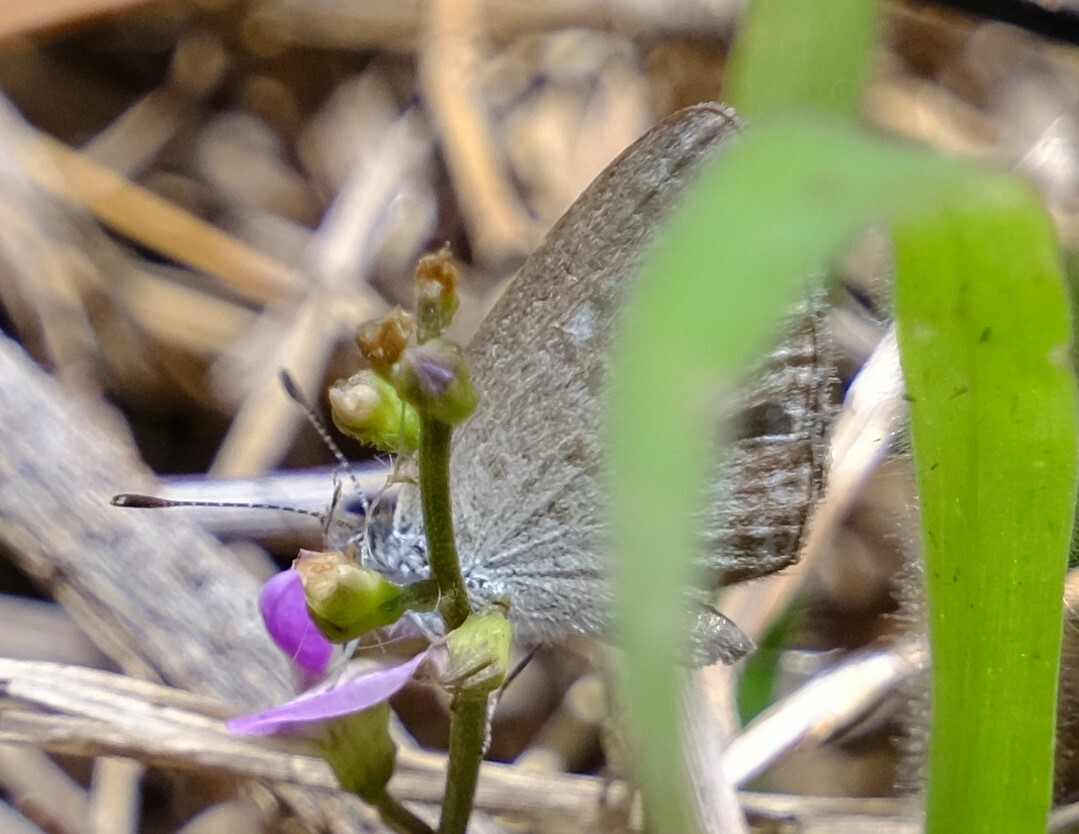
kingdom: Animalia
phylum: Arthropoda
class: Insecta
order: Lepidoptera
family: Lycaenidae
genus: Zizina
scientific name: Zizina otis
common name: Lesser grass blue
